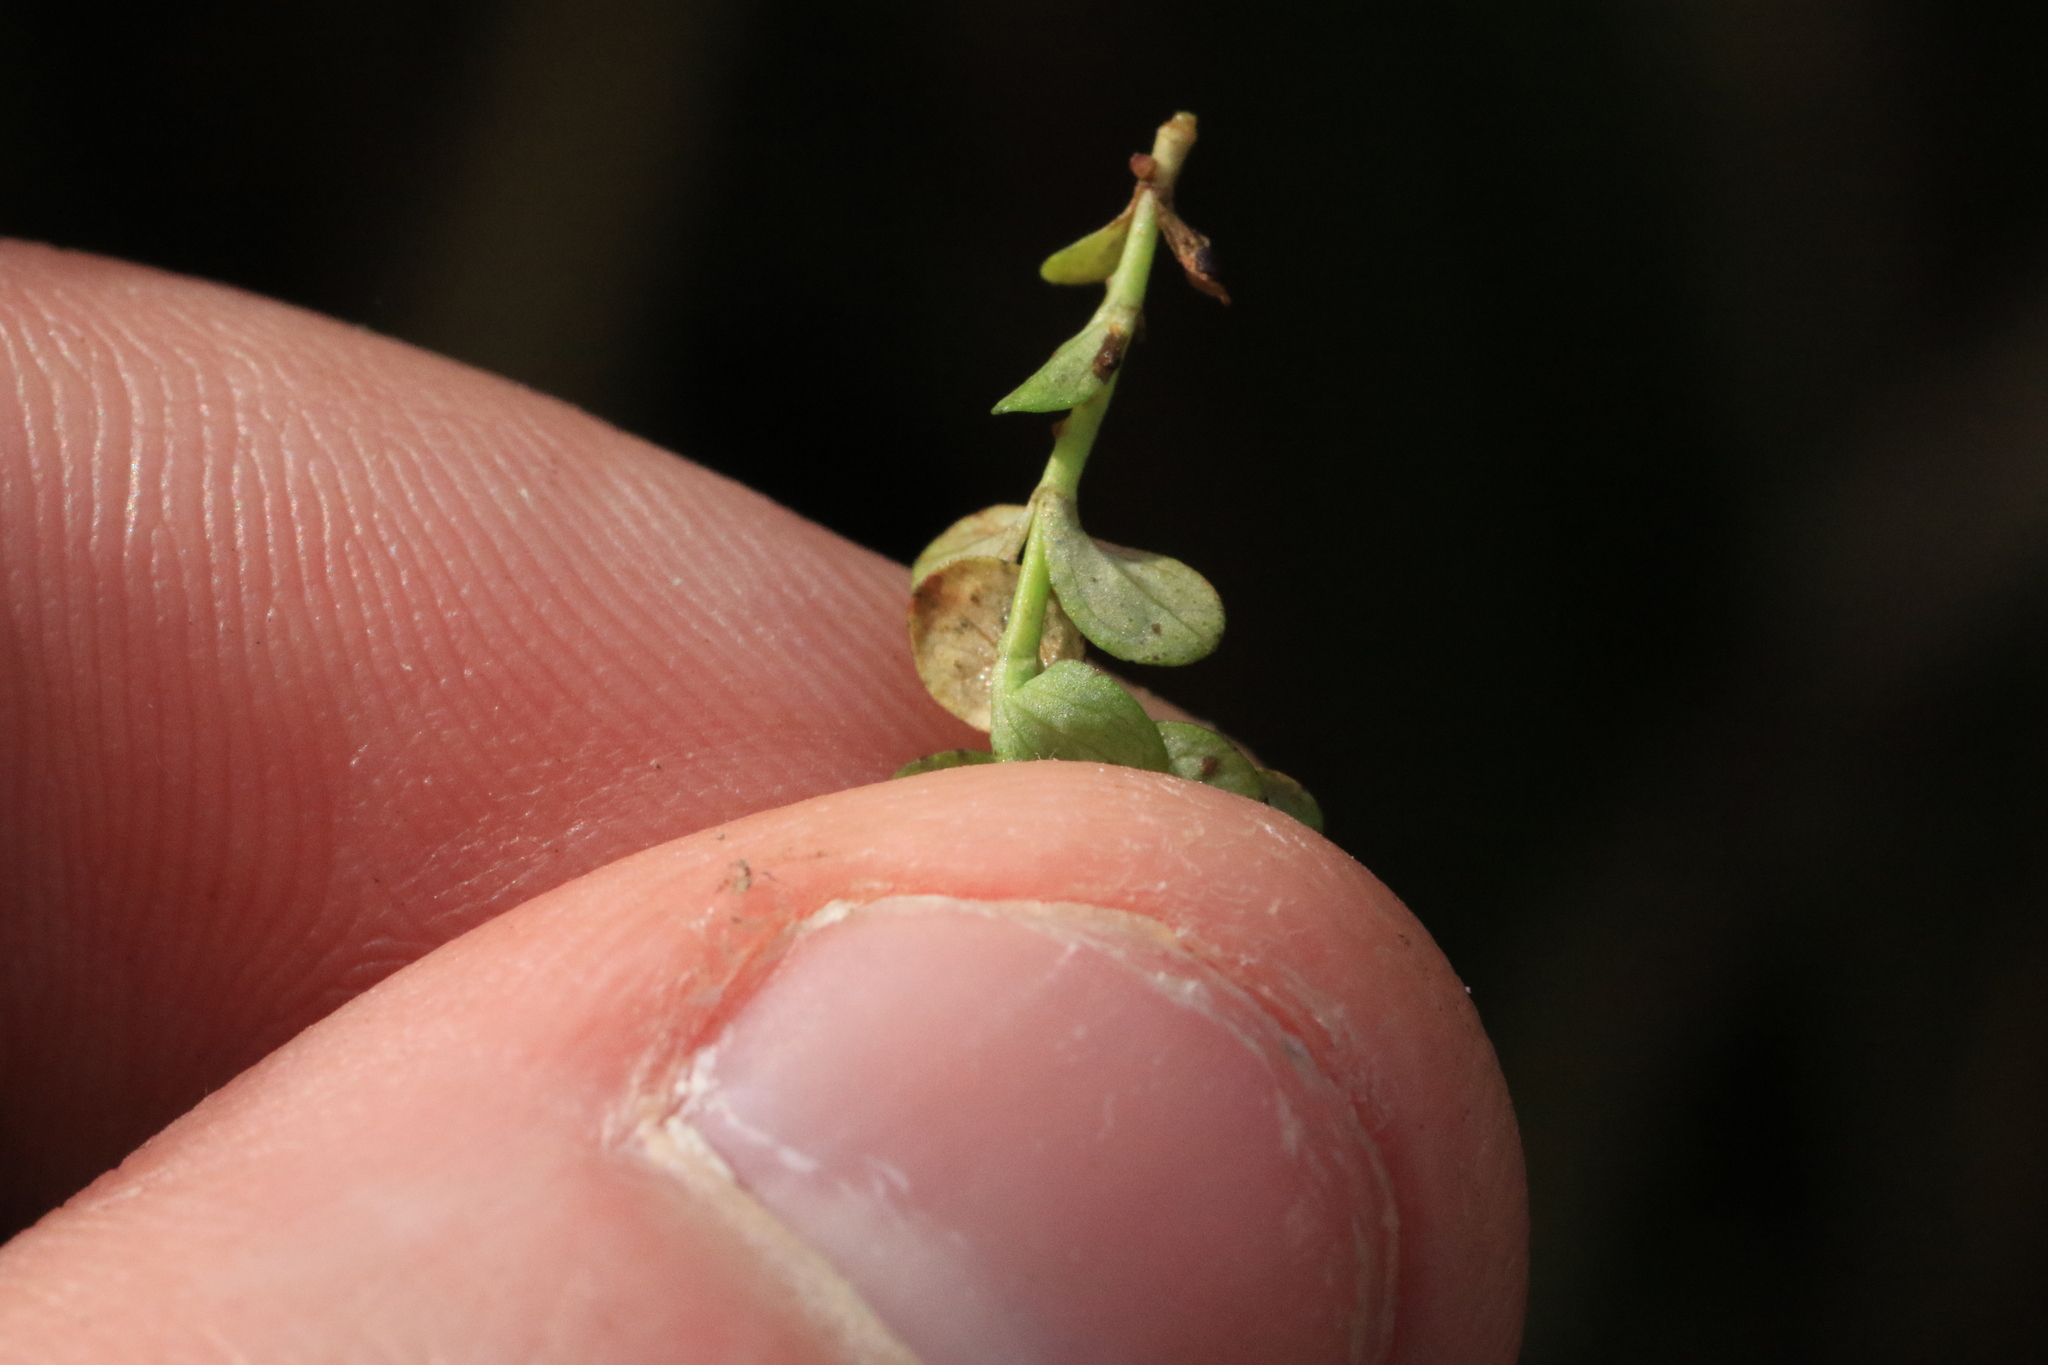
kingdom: Plantae
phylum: Tracheophyta
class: Magnoliopsida
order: Malpighiales
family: Hypericaceae
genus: Hypericum
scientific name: Hypericum anagalloides
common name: Bog st. john's-wort
